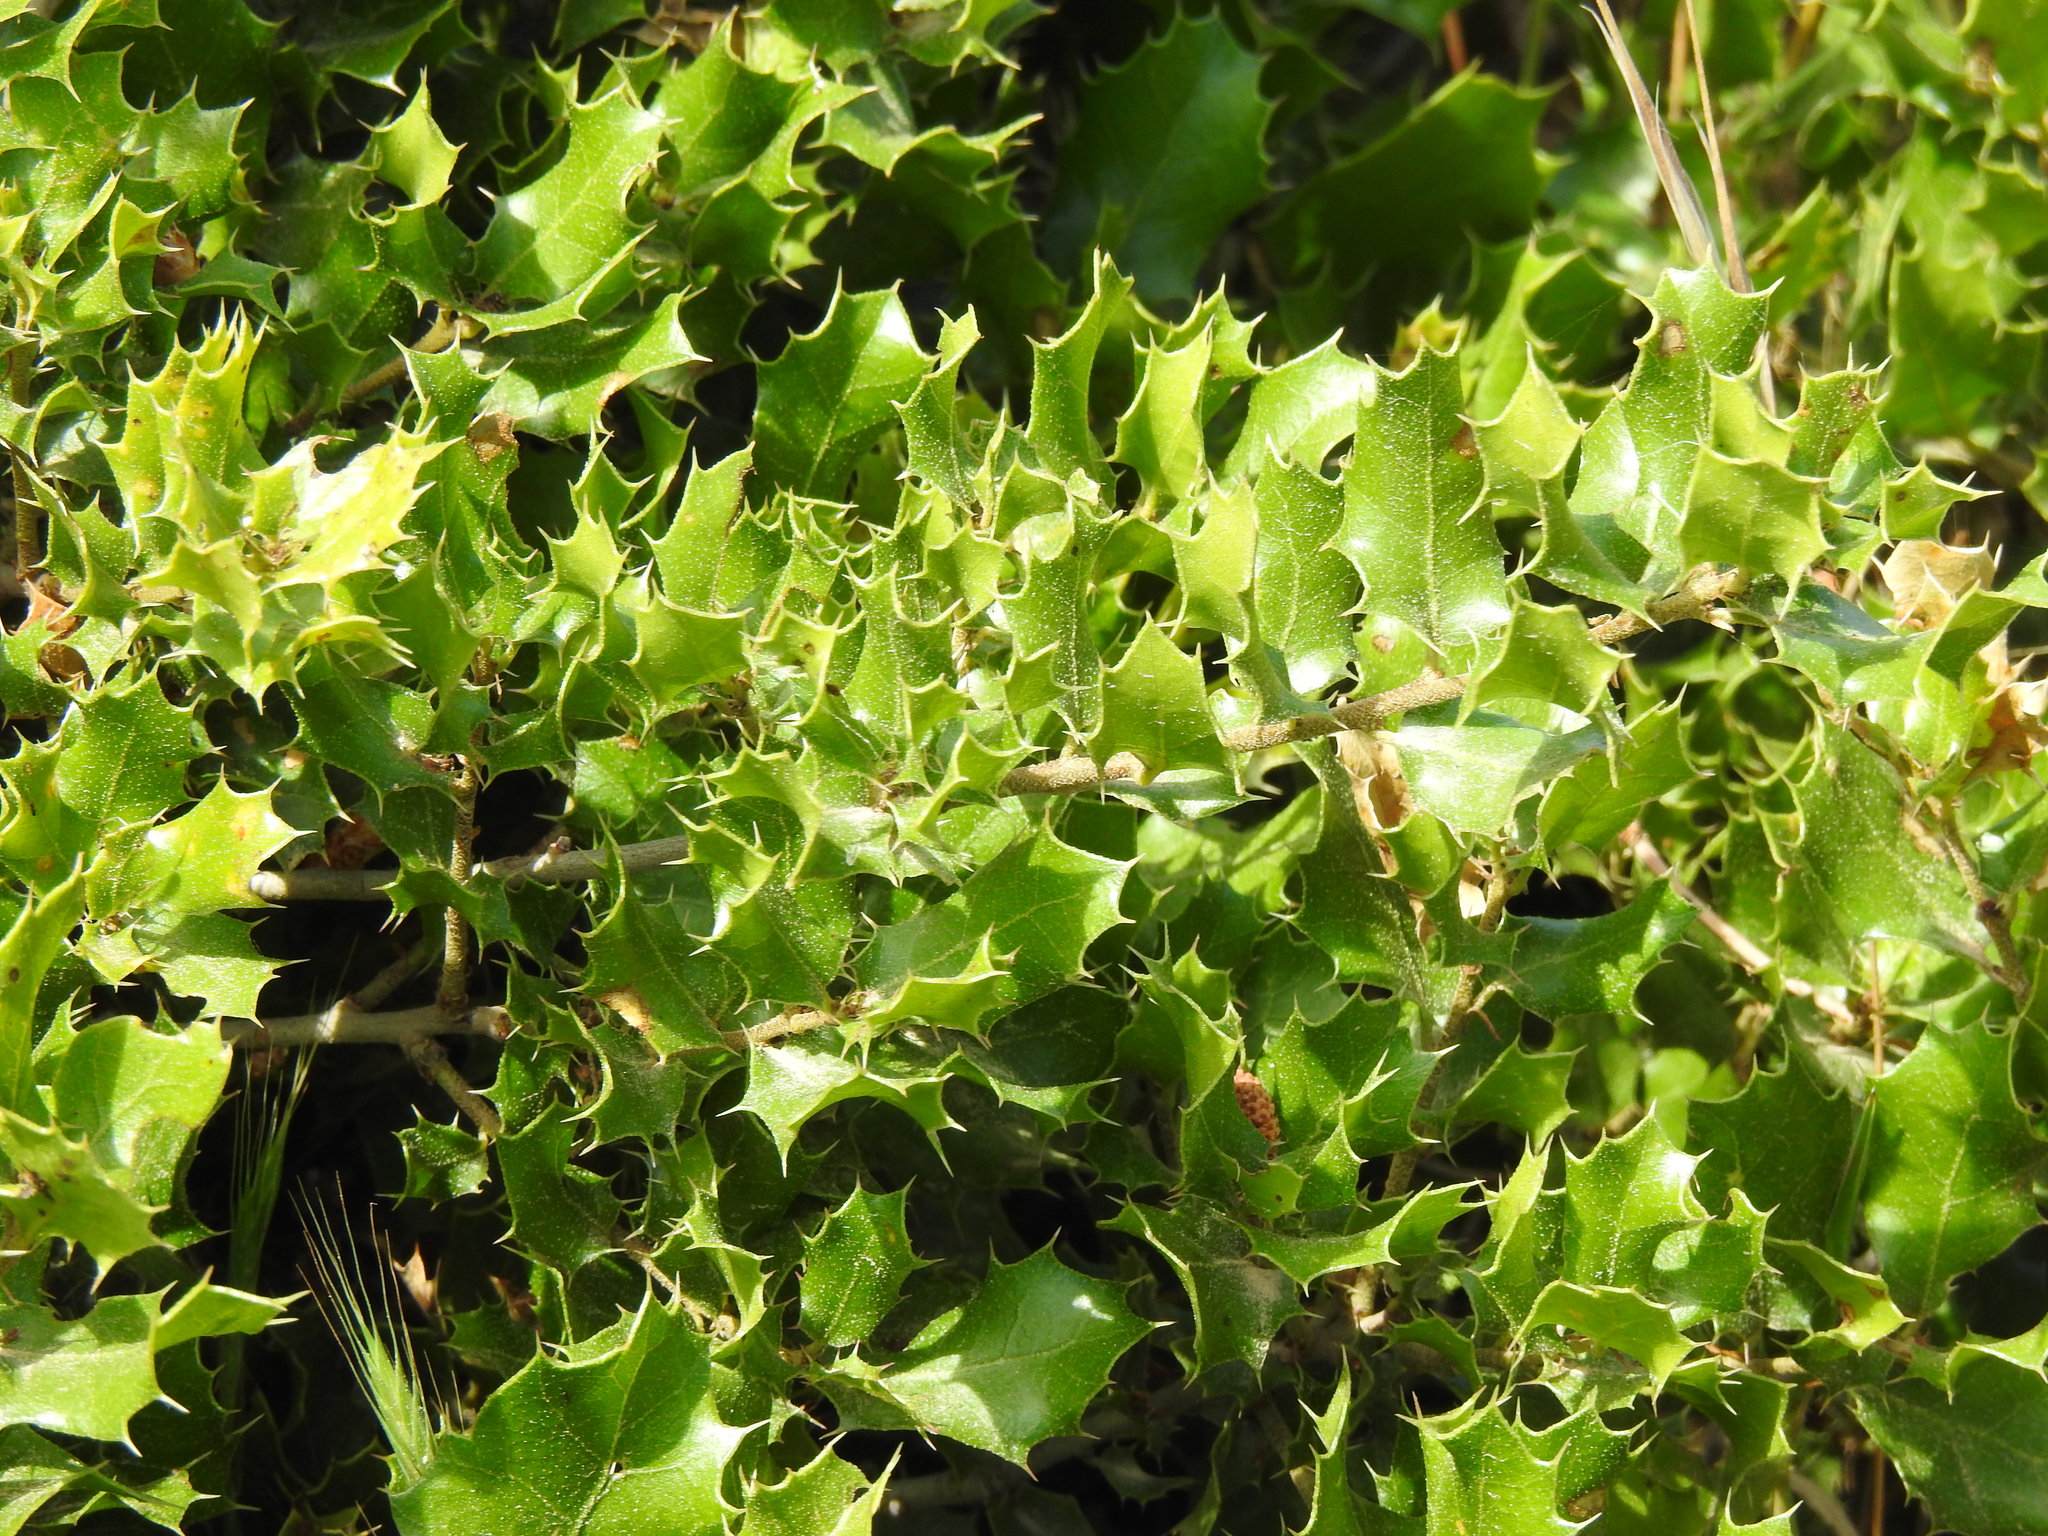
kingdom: Plantae
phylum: Tracheophyta
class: Magnoliopsida
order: Fagales
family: Fagaceae
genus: Quercus
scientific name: Quercus coccifera
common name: Kermes oak
